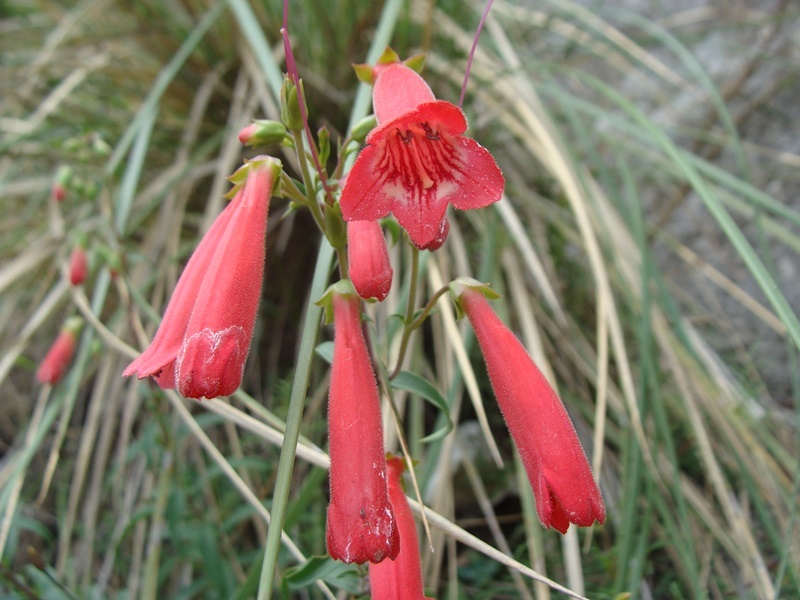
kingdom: Plantae
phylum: Tracheophyta
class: Magnoliopsida
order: Lamiales
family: Plantaginaceae
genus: Penstemon
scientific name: Penstemon isophyllus
